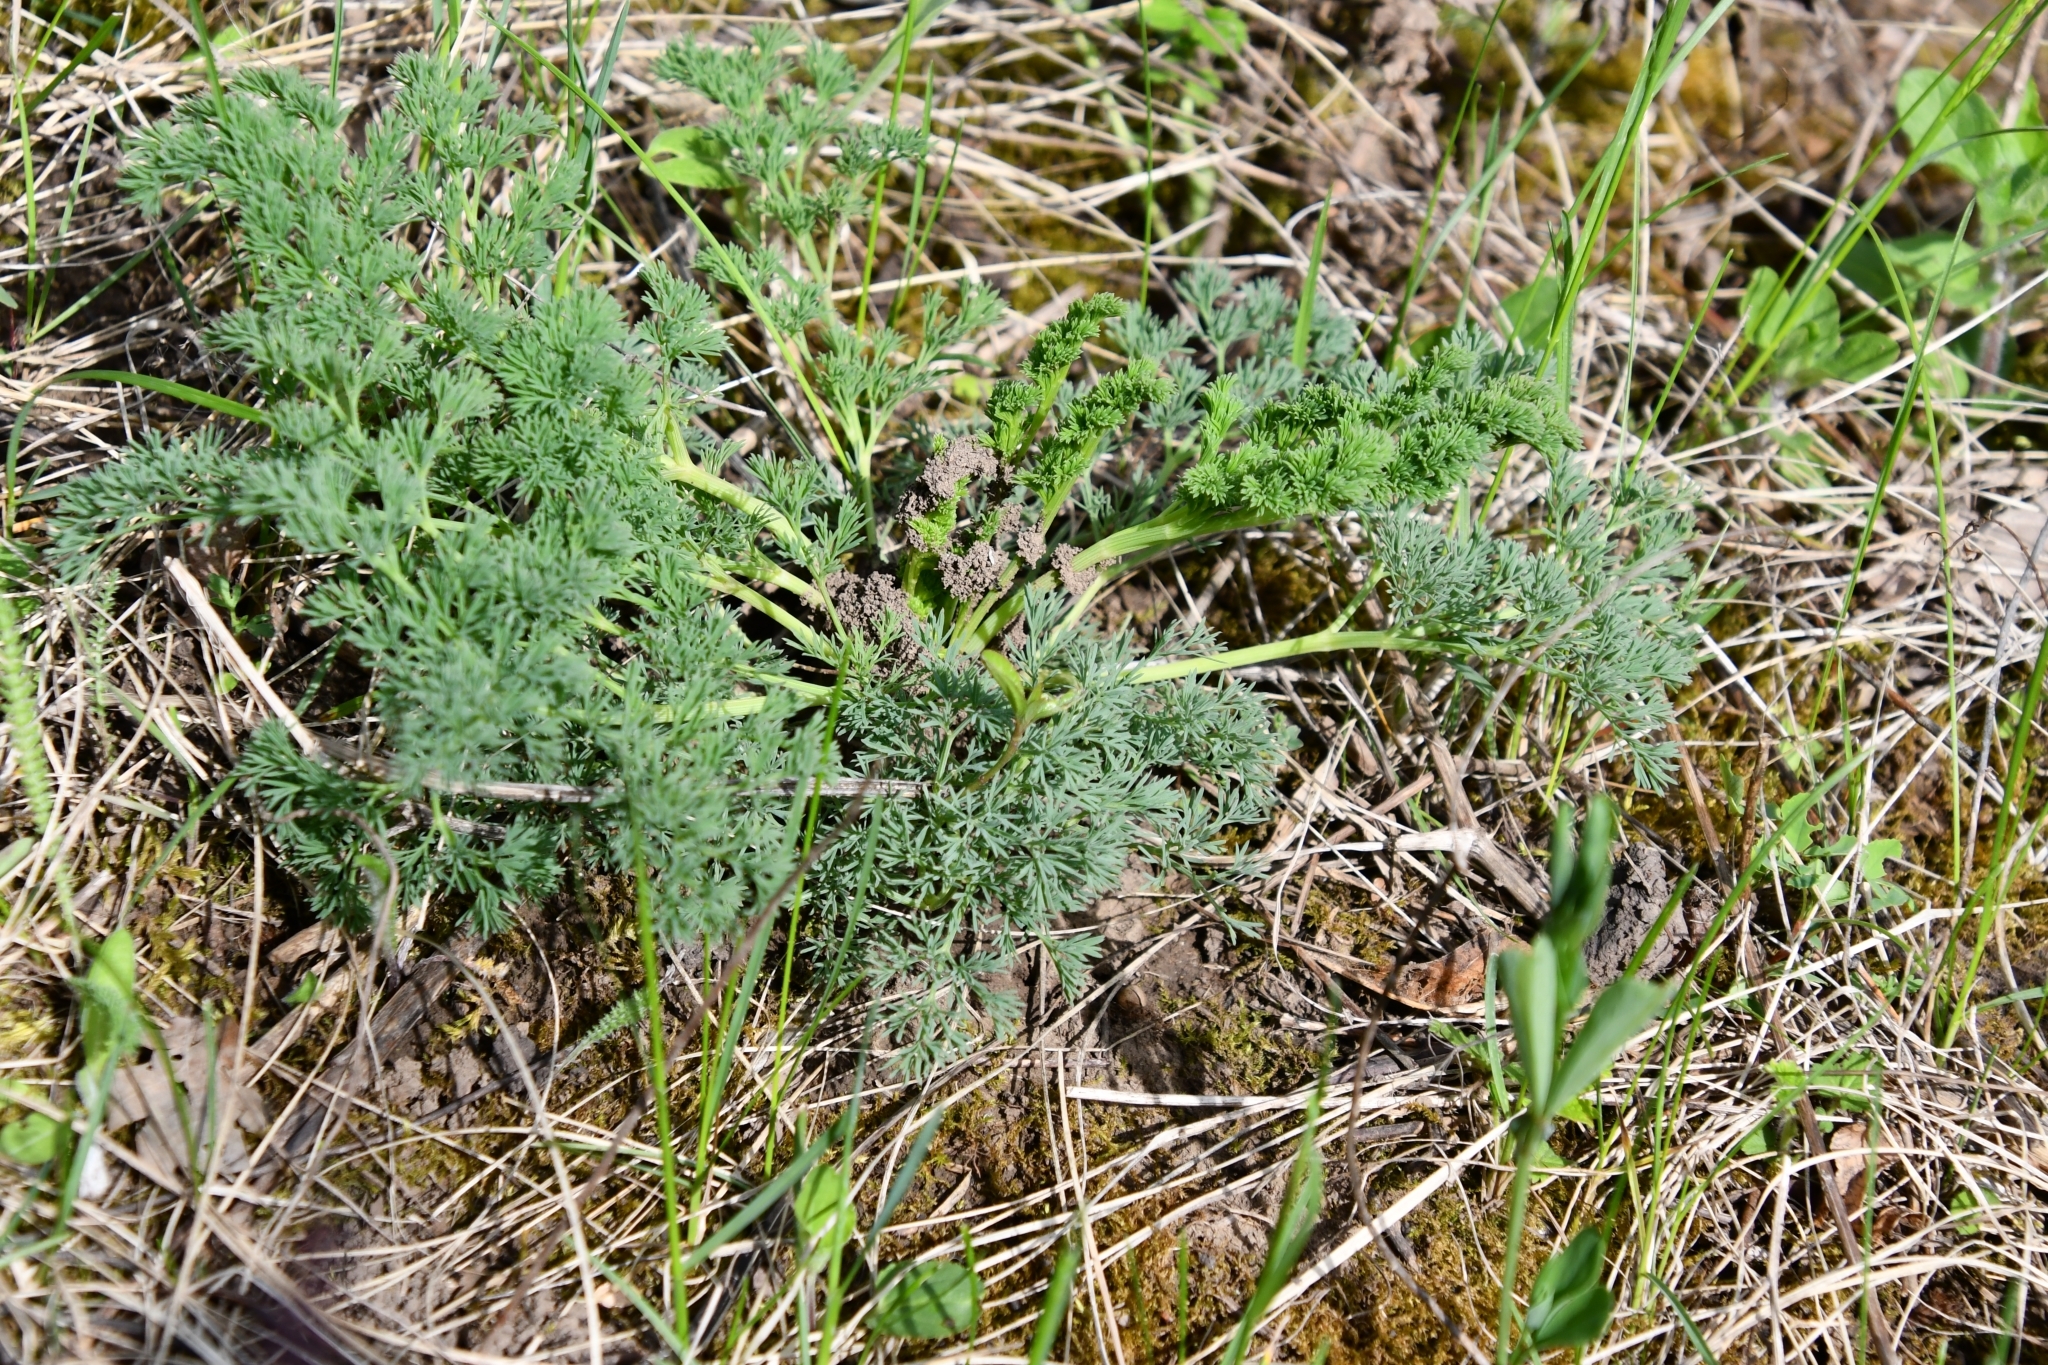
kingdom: Plantae
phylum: Tracheophyta
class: Magnoliopsida
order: Apiales
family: Apiaceae
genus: Seseli
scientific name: Seseli arenarium
